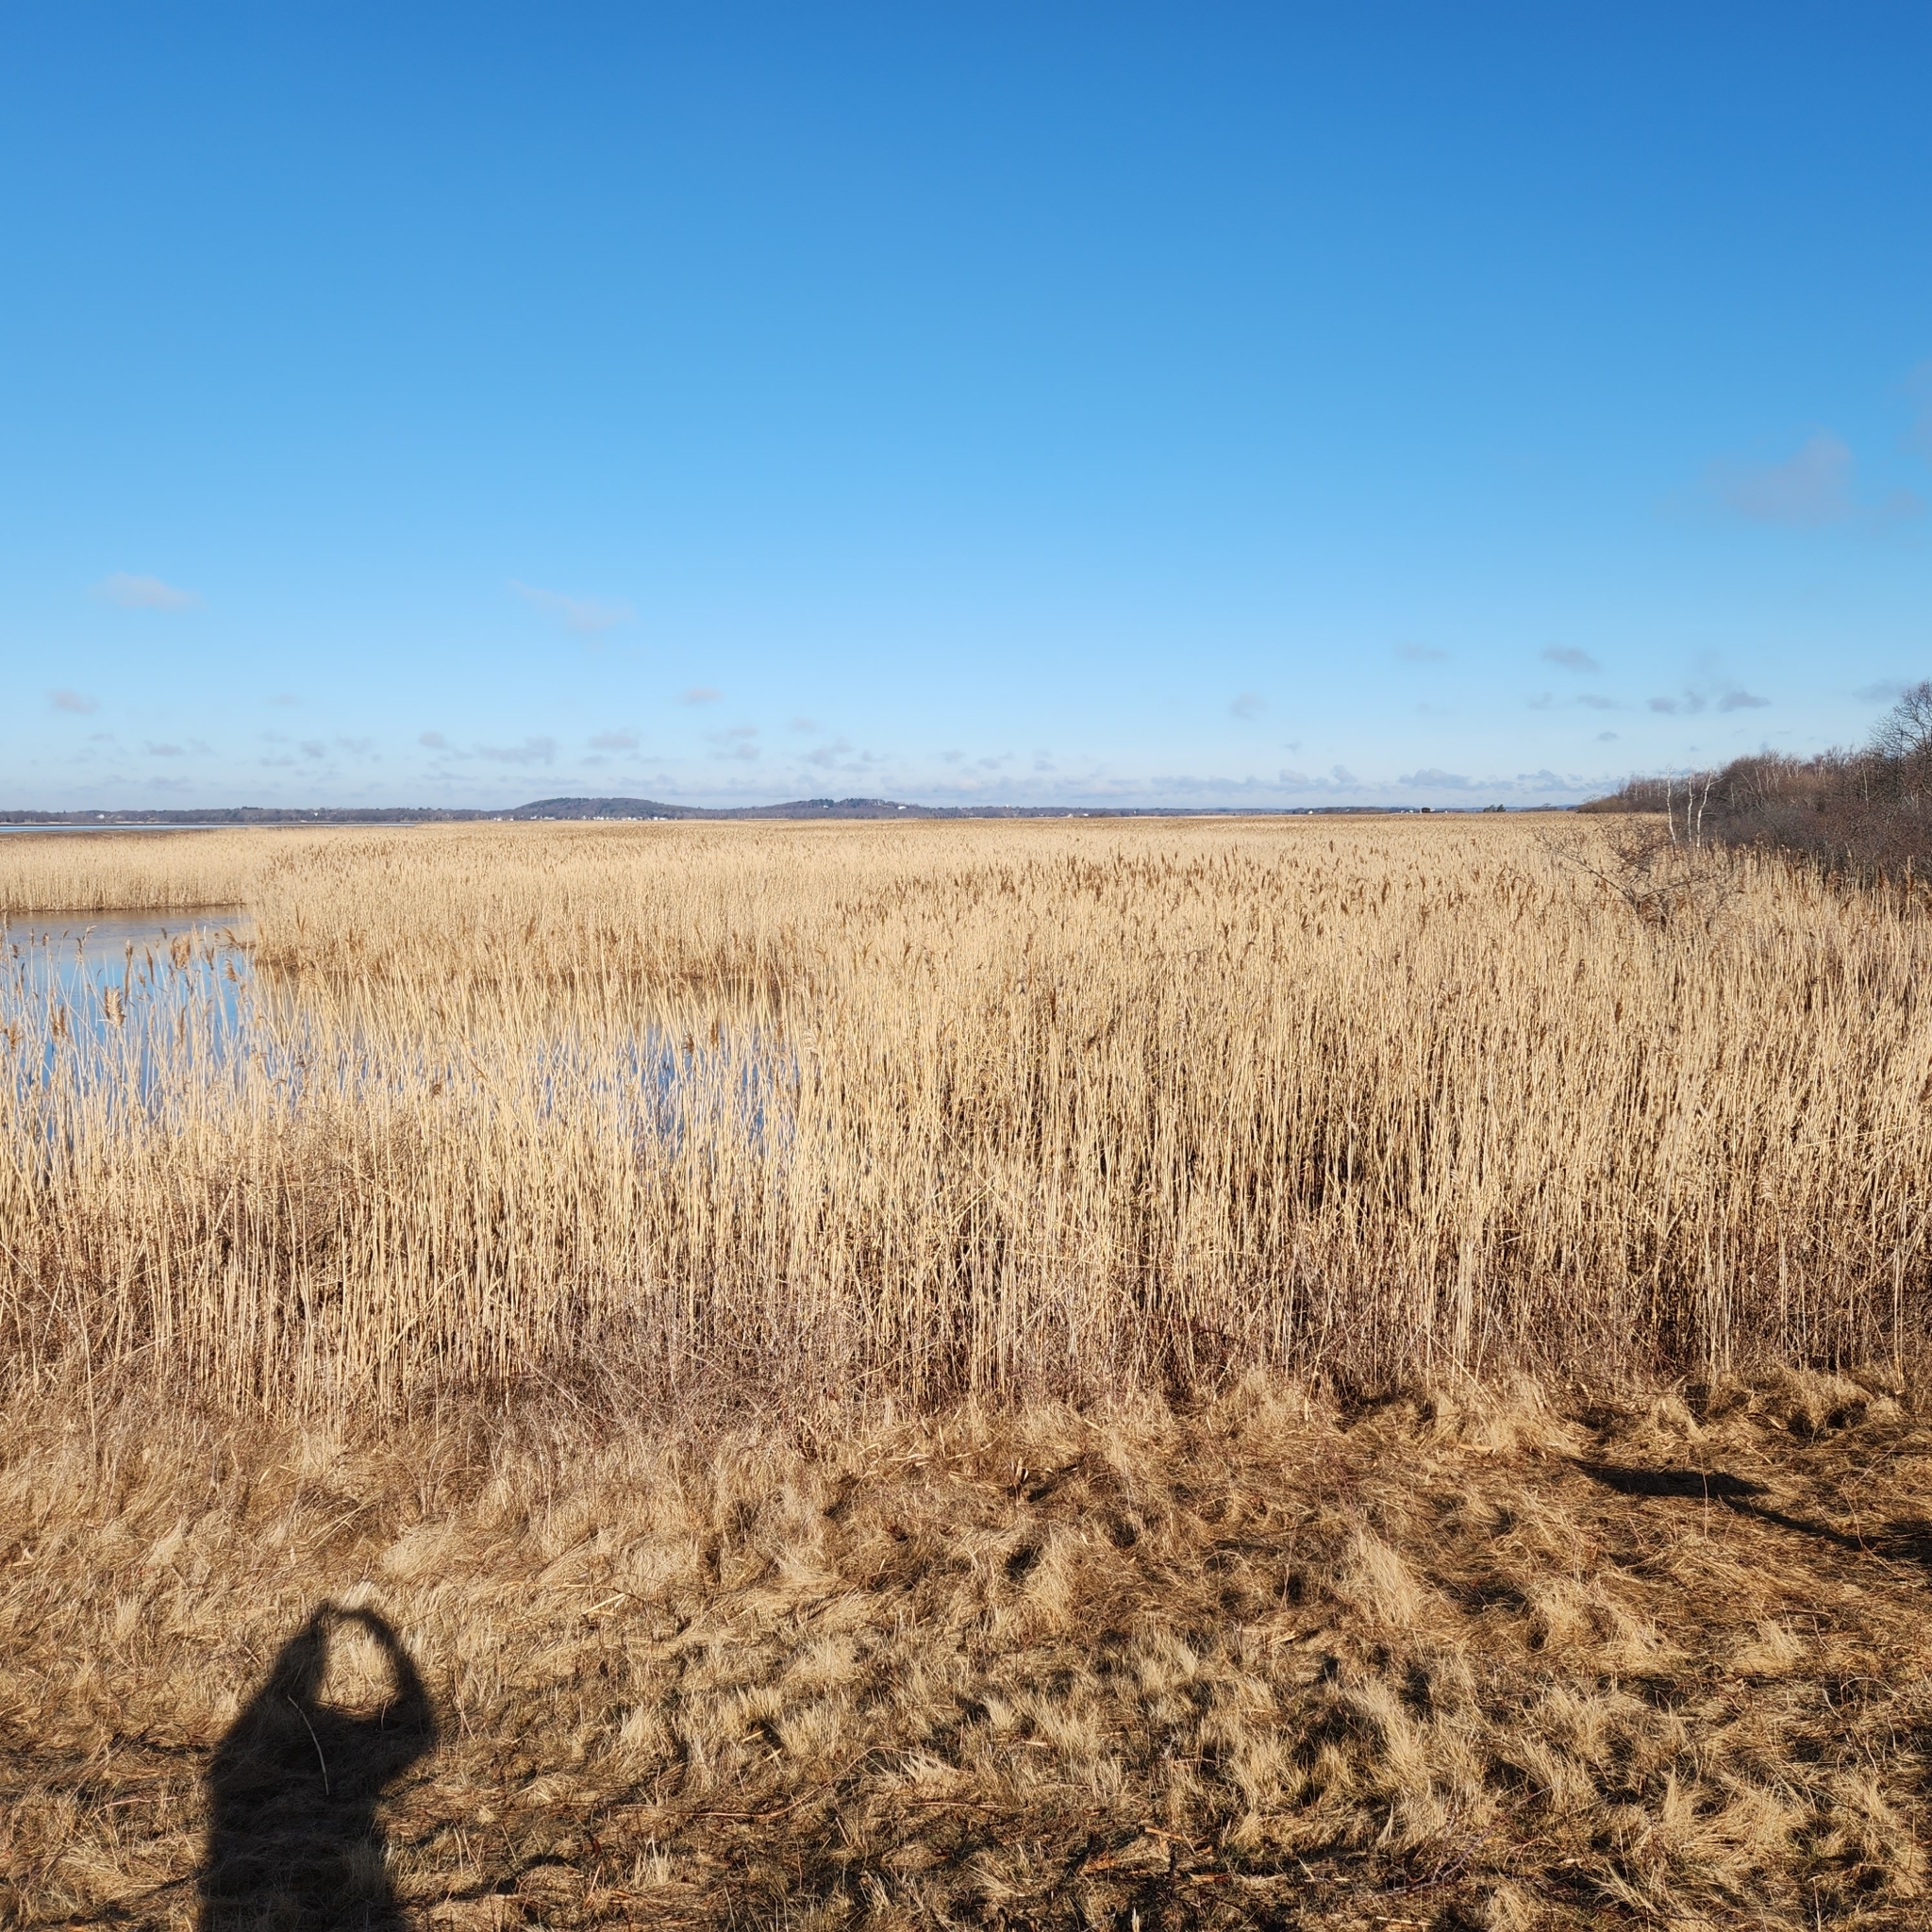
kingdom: Plantae
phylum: Tracheophyta
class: Liliopsida
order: Poales
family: Poaceae
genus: Phragmites
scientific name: Phragmites australis
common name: Common reed
